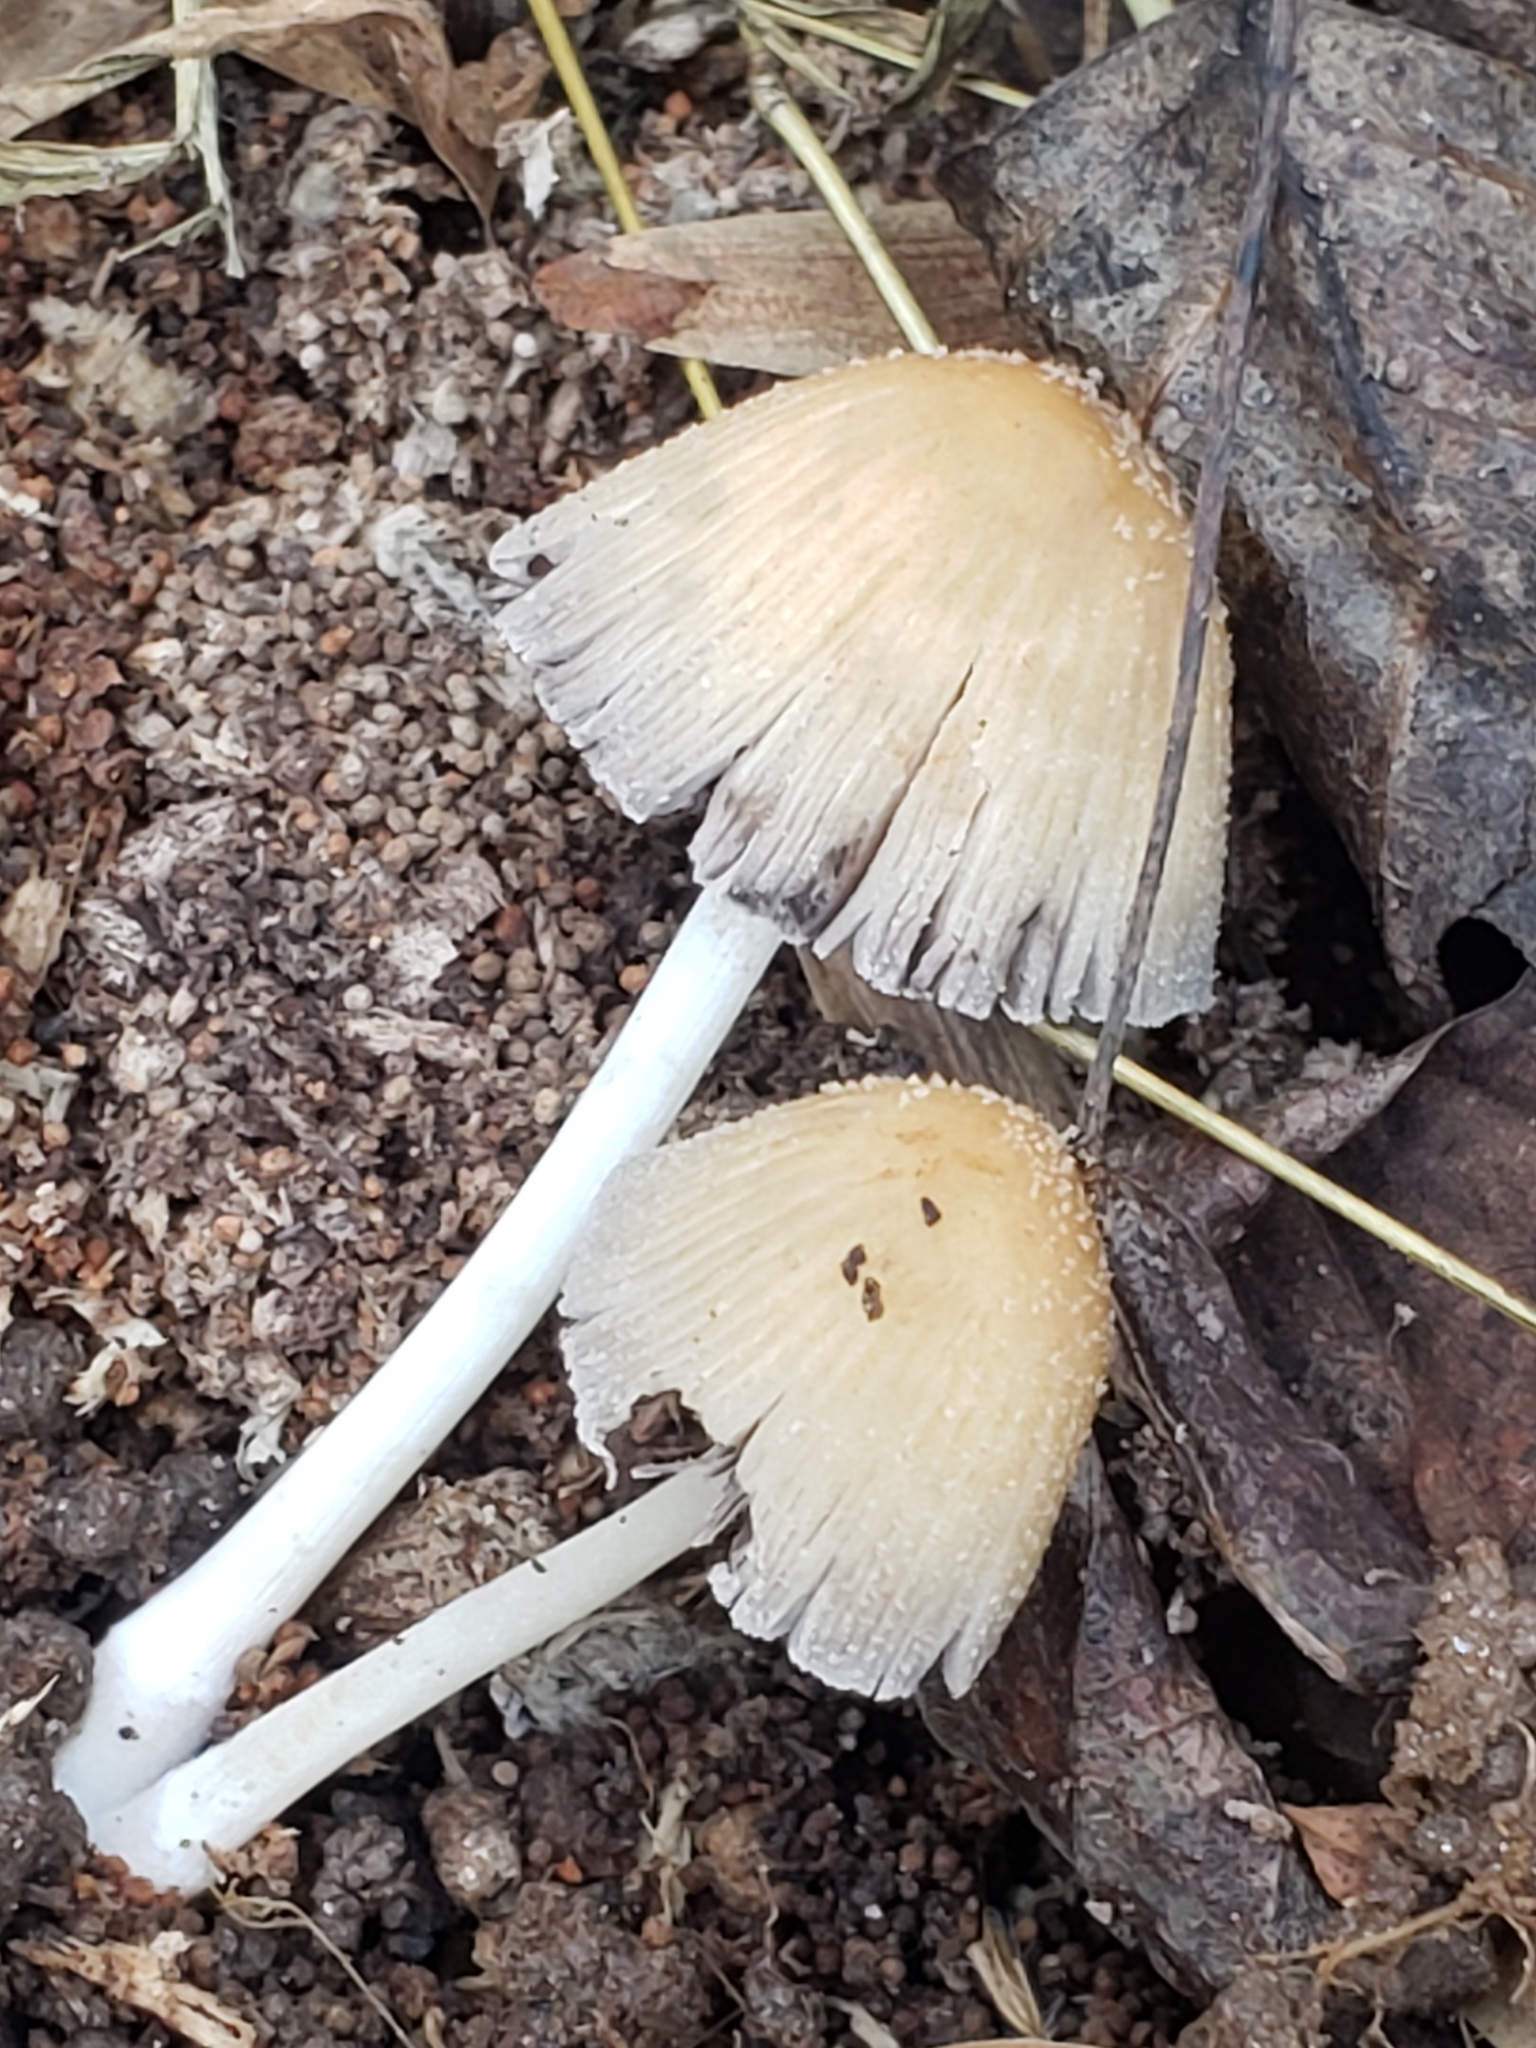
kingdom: Fungi
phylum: Basidiomycota
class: Agaricomycetes
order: Agaricales
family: Psathyrellaceae
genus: Coprinellus
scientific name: Coprinellus micaceus
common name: Glistening ink-cap
